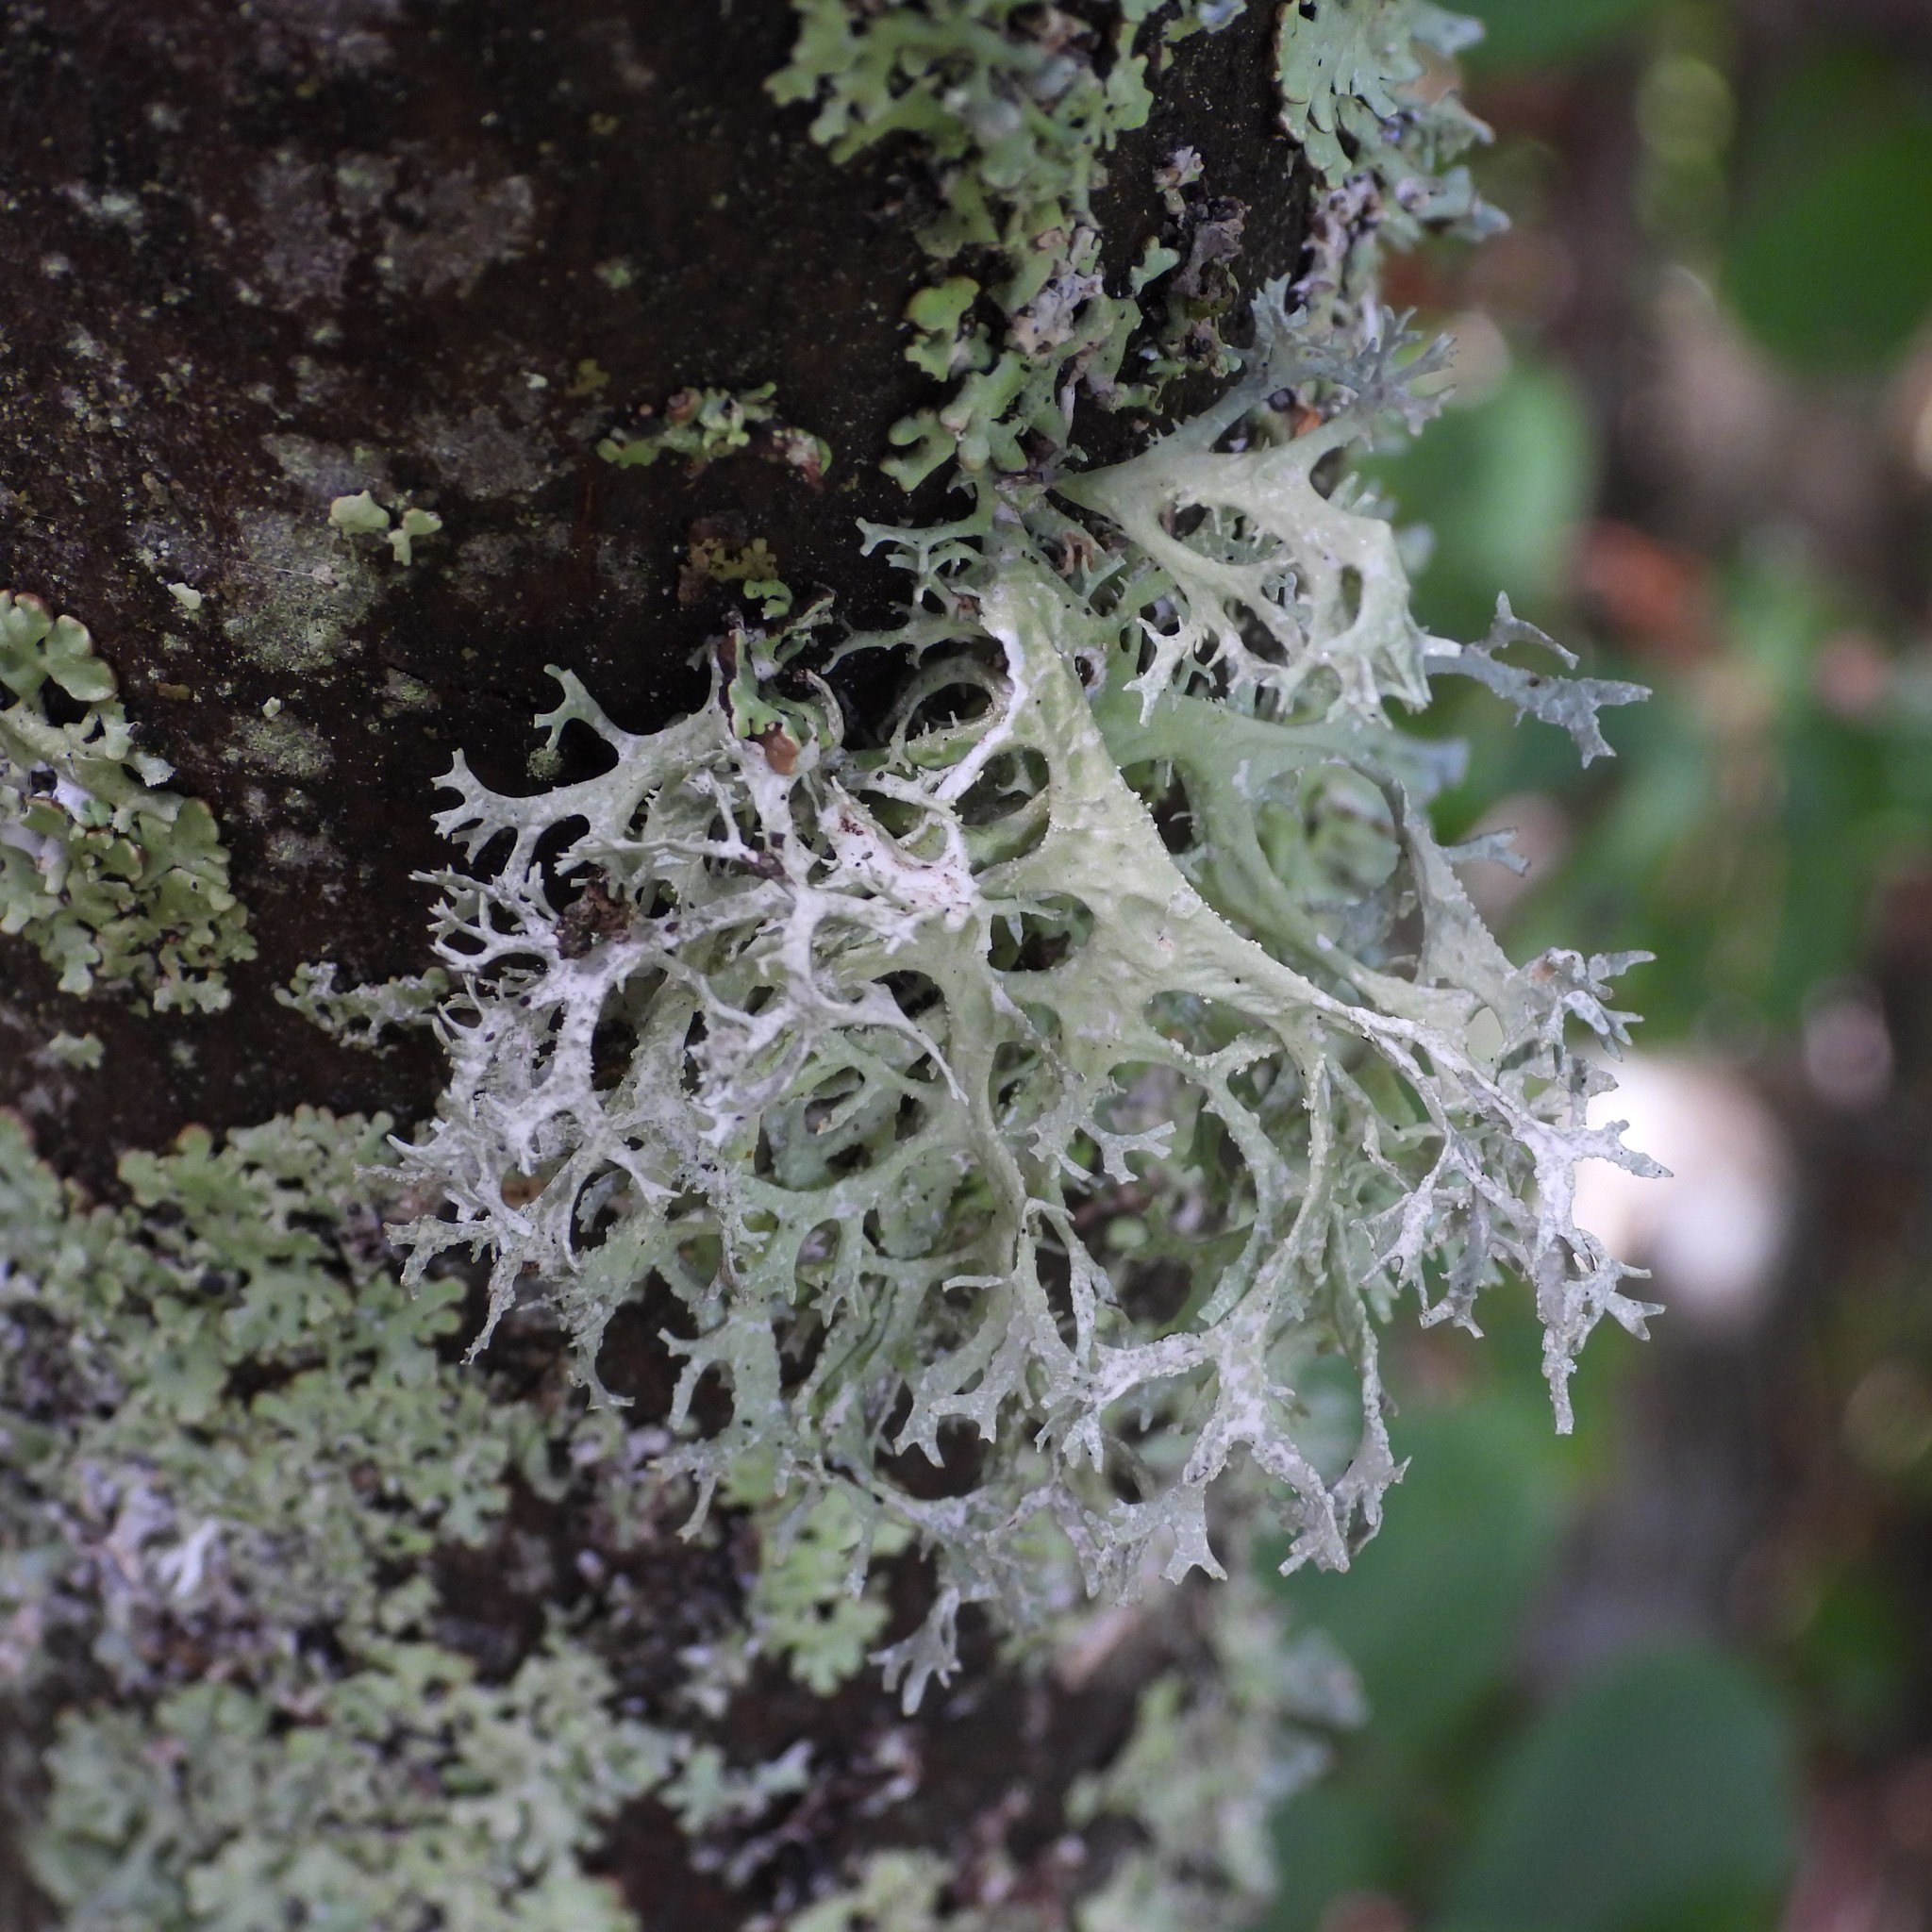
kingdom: Fungi
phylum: Ascomycota
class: Lecanoromycetes
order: Lecanorales
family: Parmeliaceae
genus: Evernia
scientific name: Evernia prunastri
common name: Oak moss
